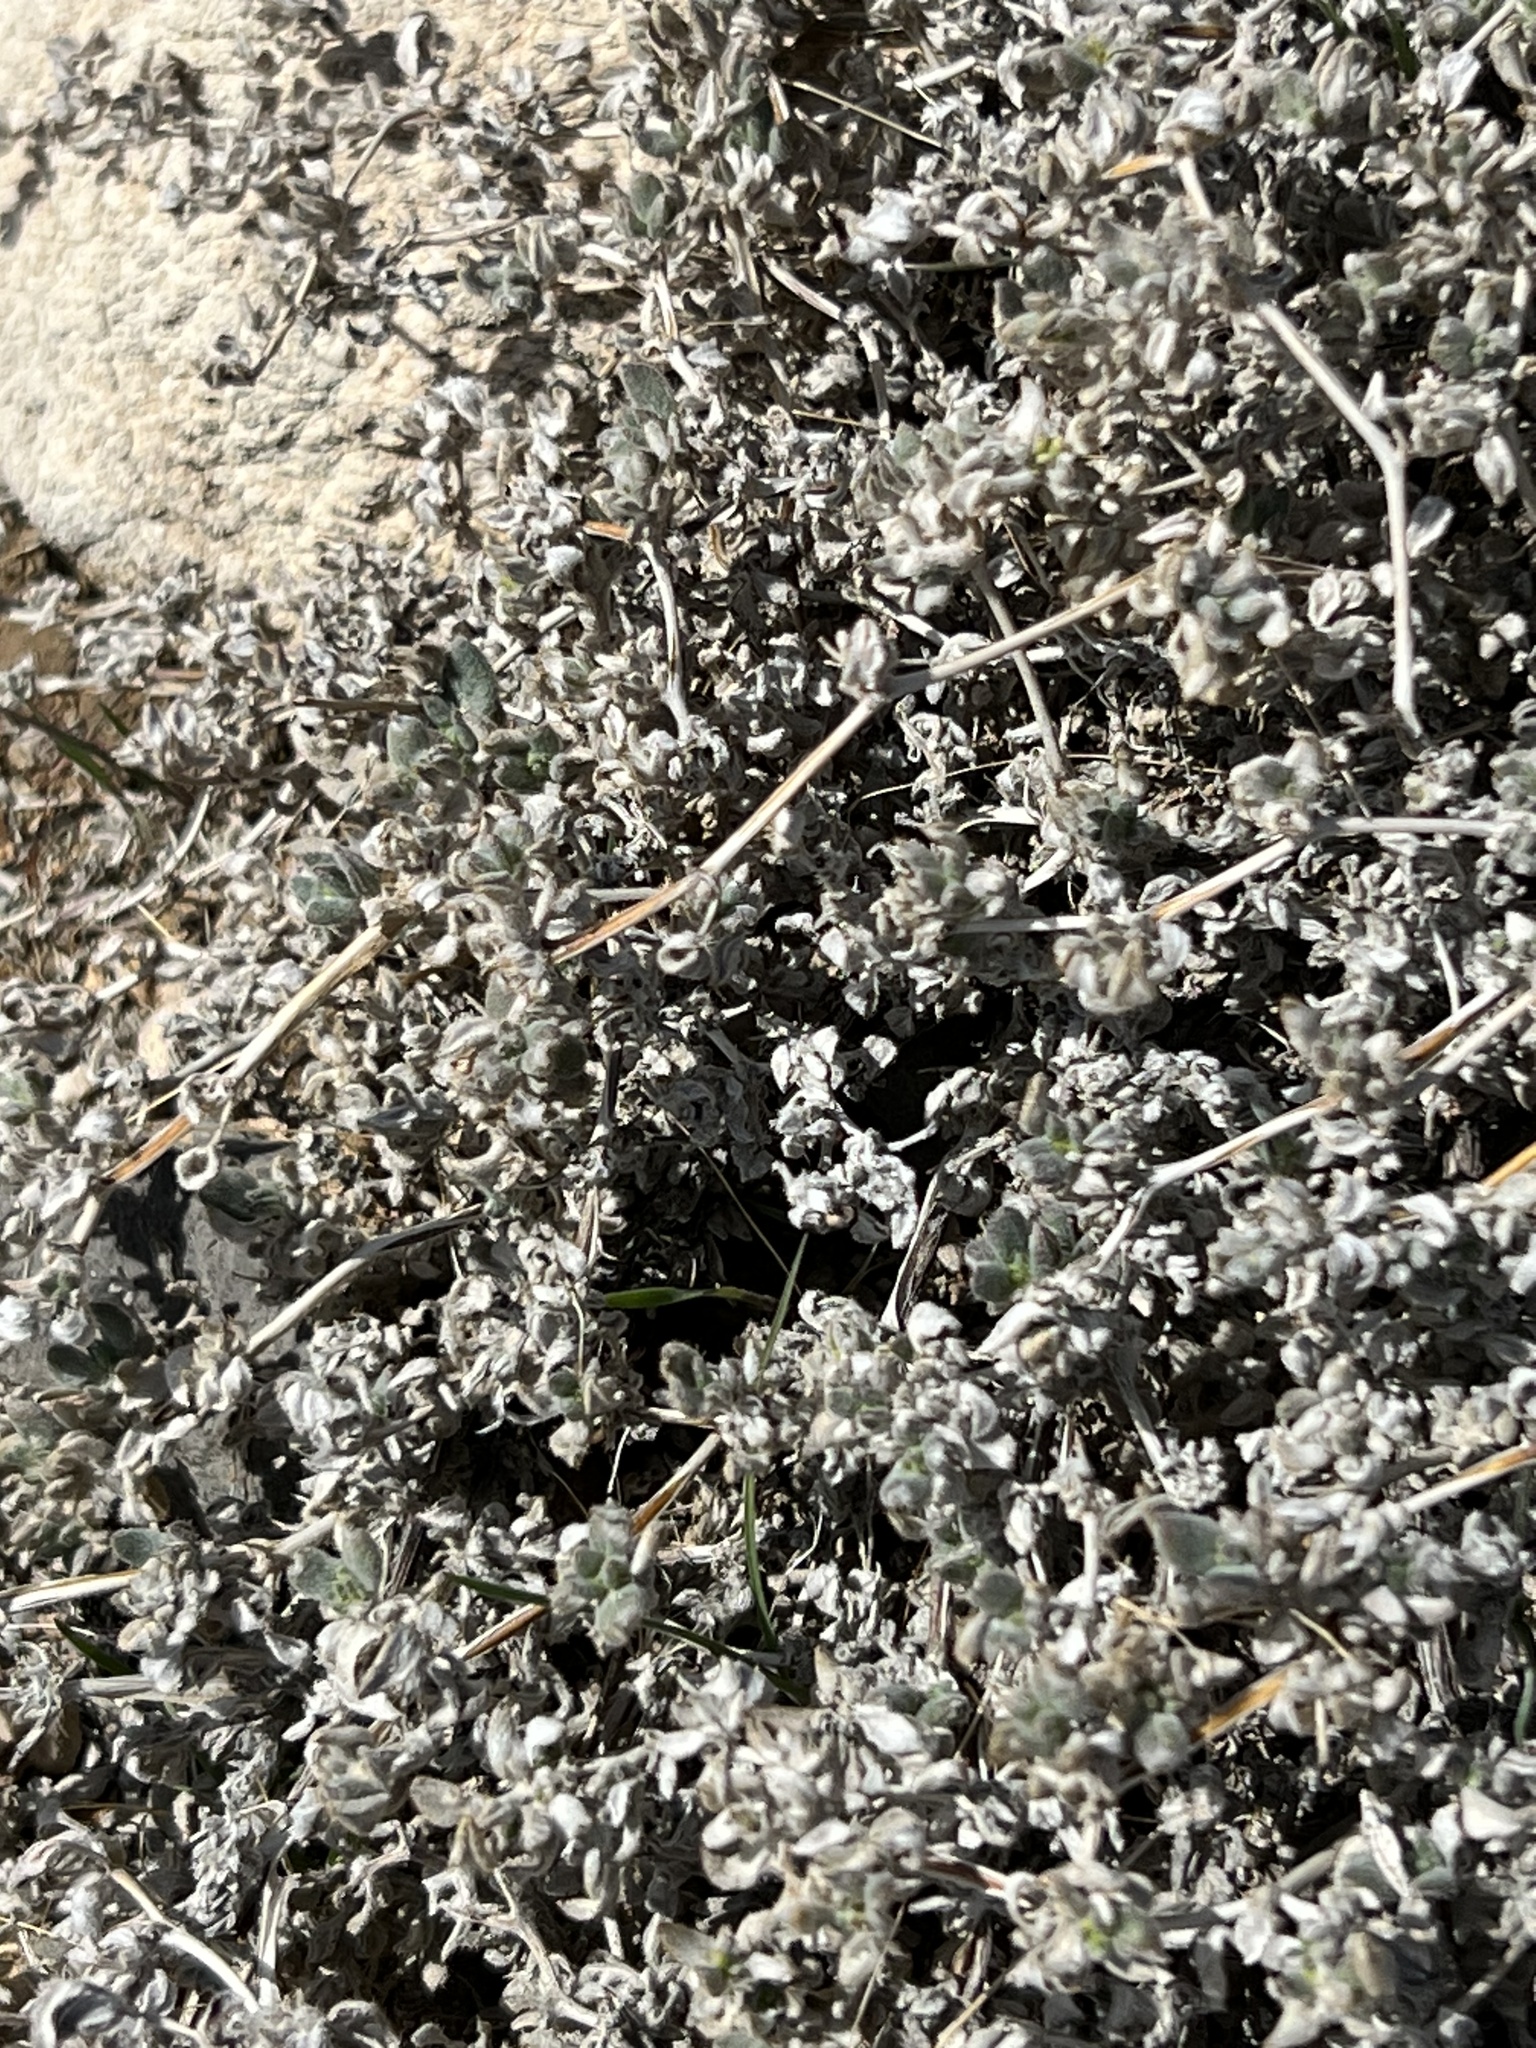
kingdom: Plantae
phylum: Tracheophyta
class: Magnoliopsida
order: Boraginales
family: Ehretiaceae
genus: Tiquilia
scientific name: Tiquilia canescens
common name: Hairy tiquilia
